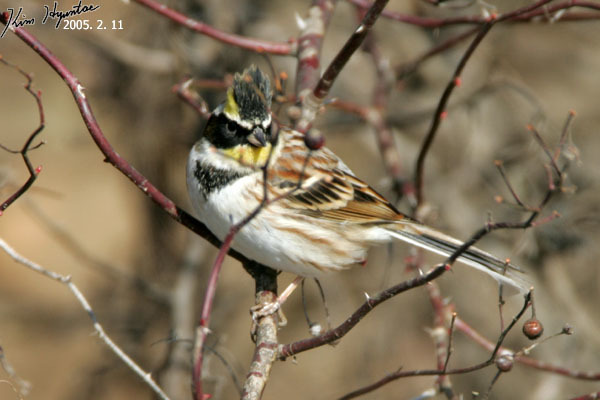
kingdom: Animalia
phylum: Chordata
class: Aves
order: Passeriformes
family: Emberizidae
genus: Emberiza
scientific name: Emberiza elegans
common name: Yellow-throated bunting
